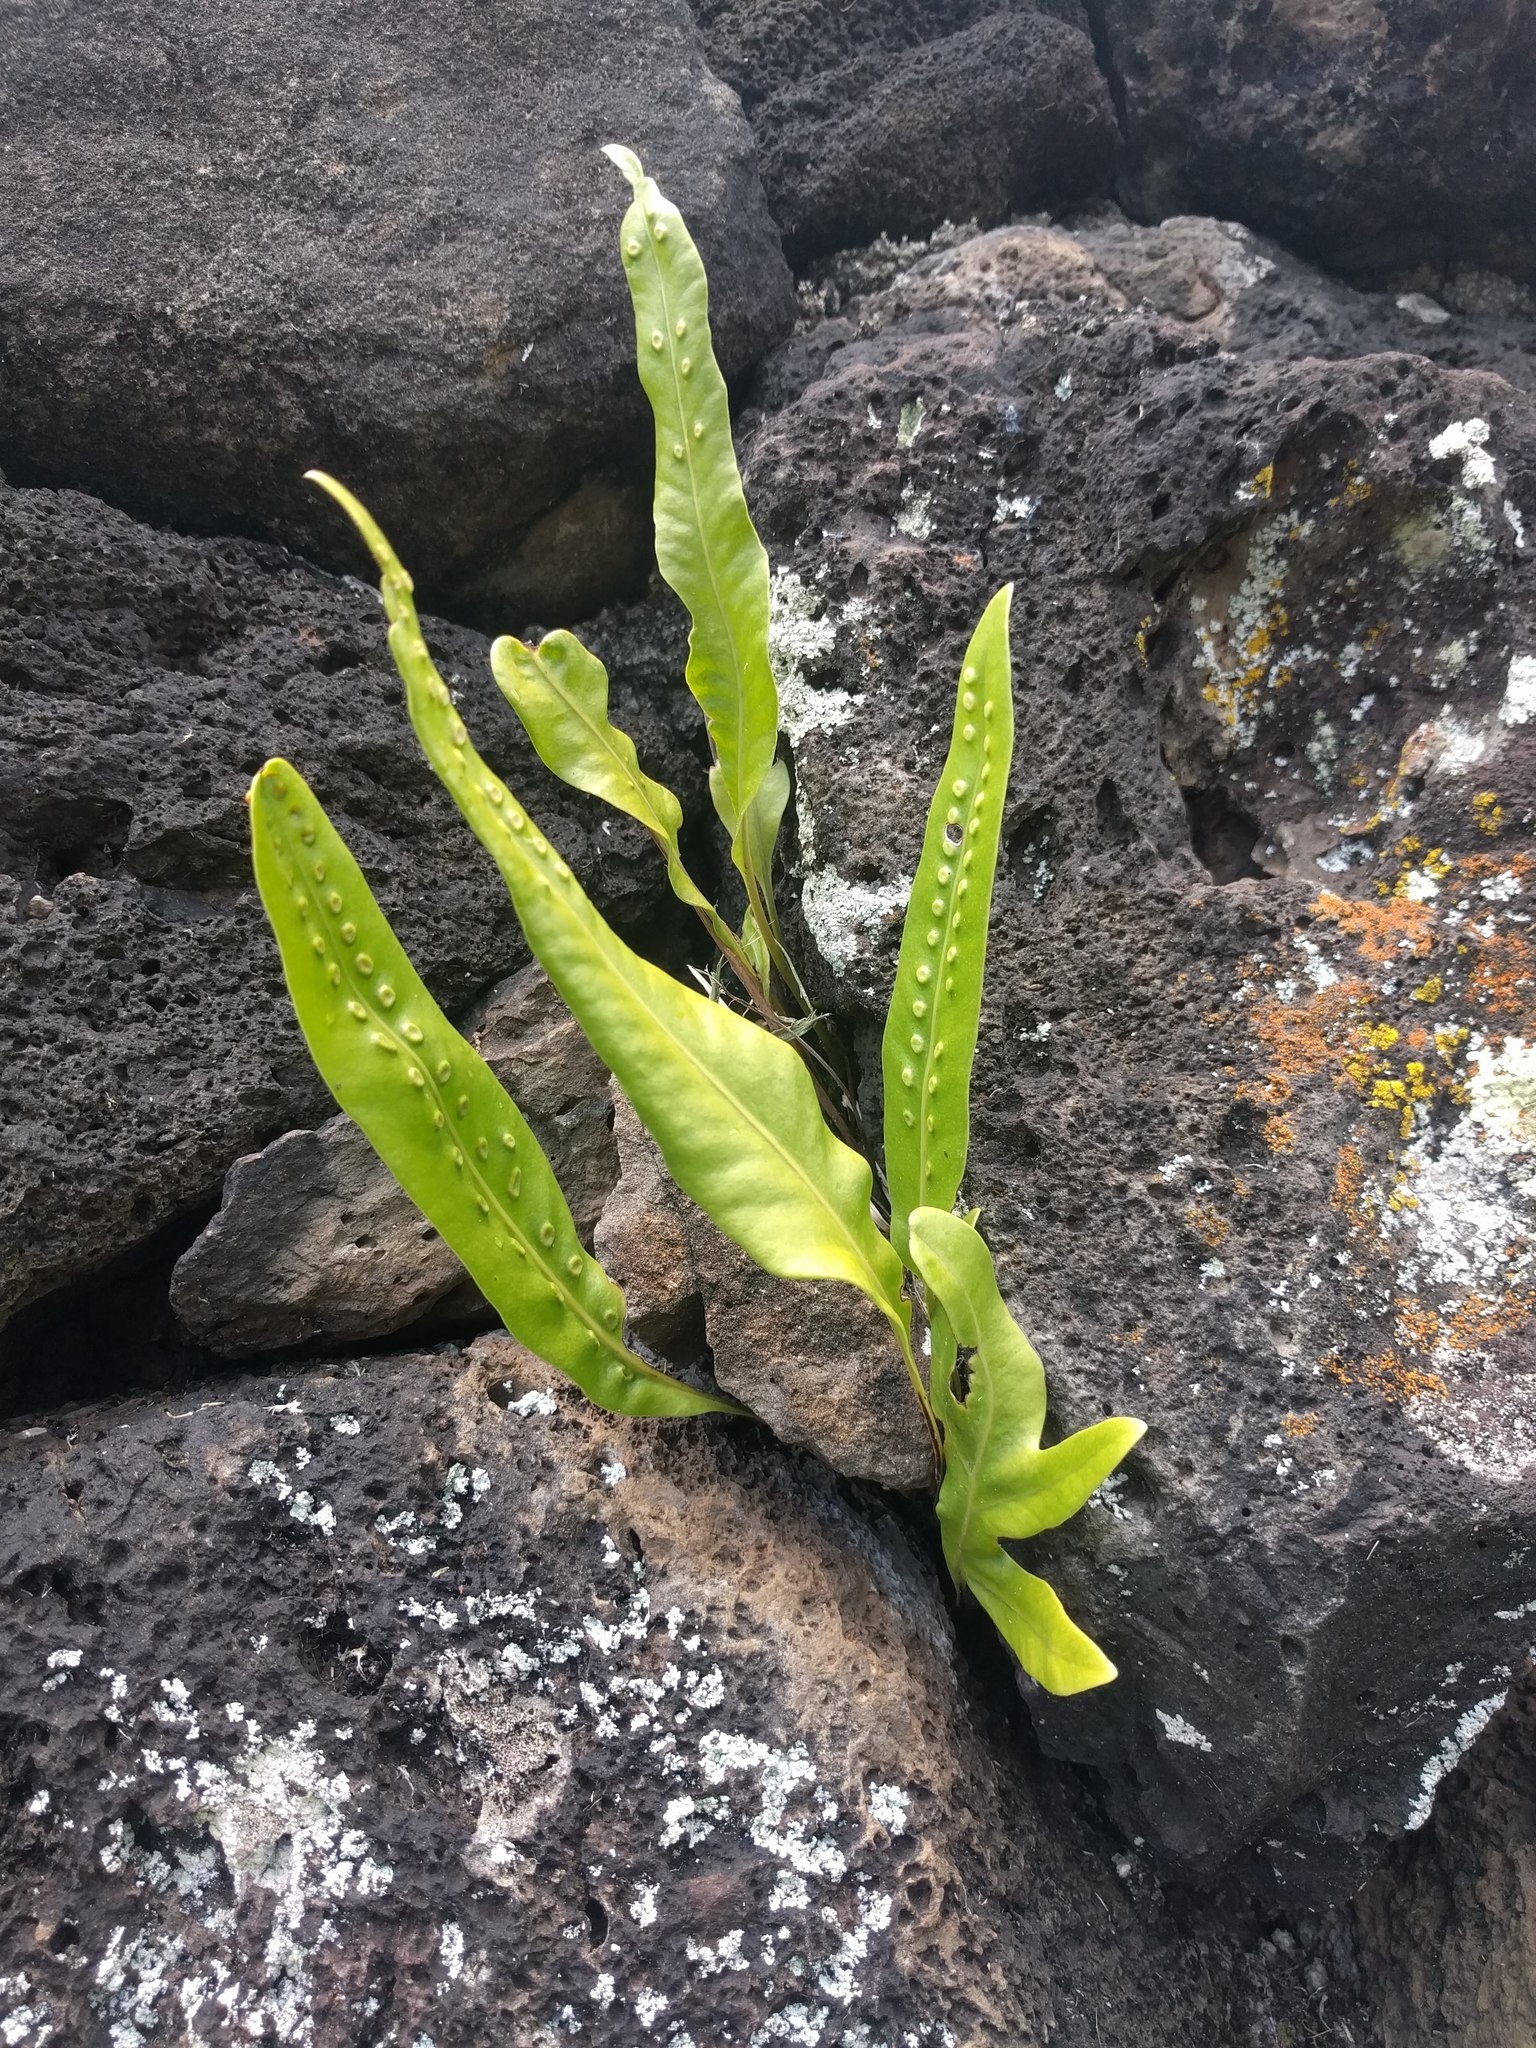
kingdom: Plantae
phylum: Tracheophyta
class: Polypodiopsida
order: Polypodiales
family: Polypodiaceae
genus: Microsorum
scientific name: Microsorum grossum
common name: Musk fern
